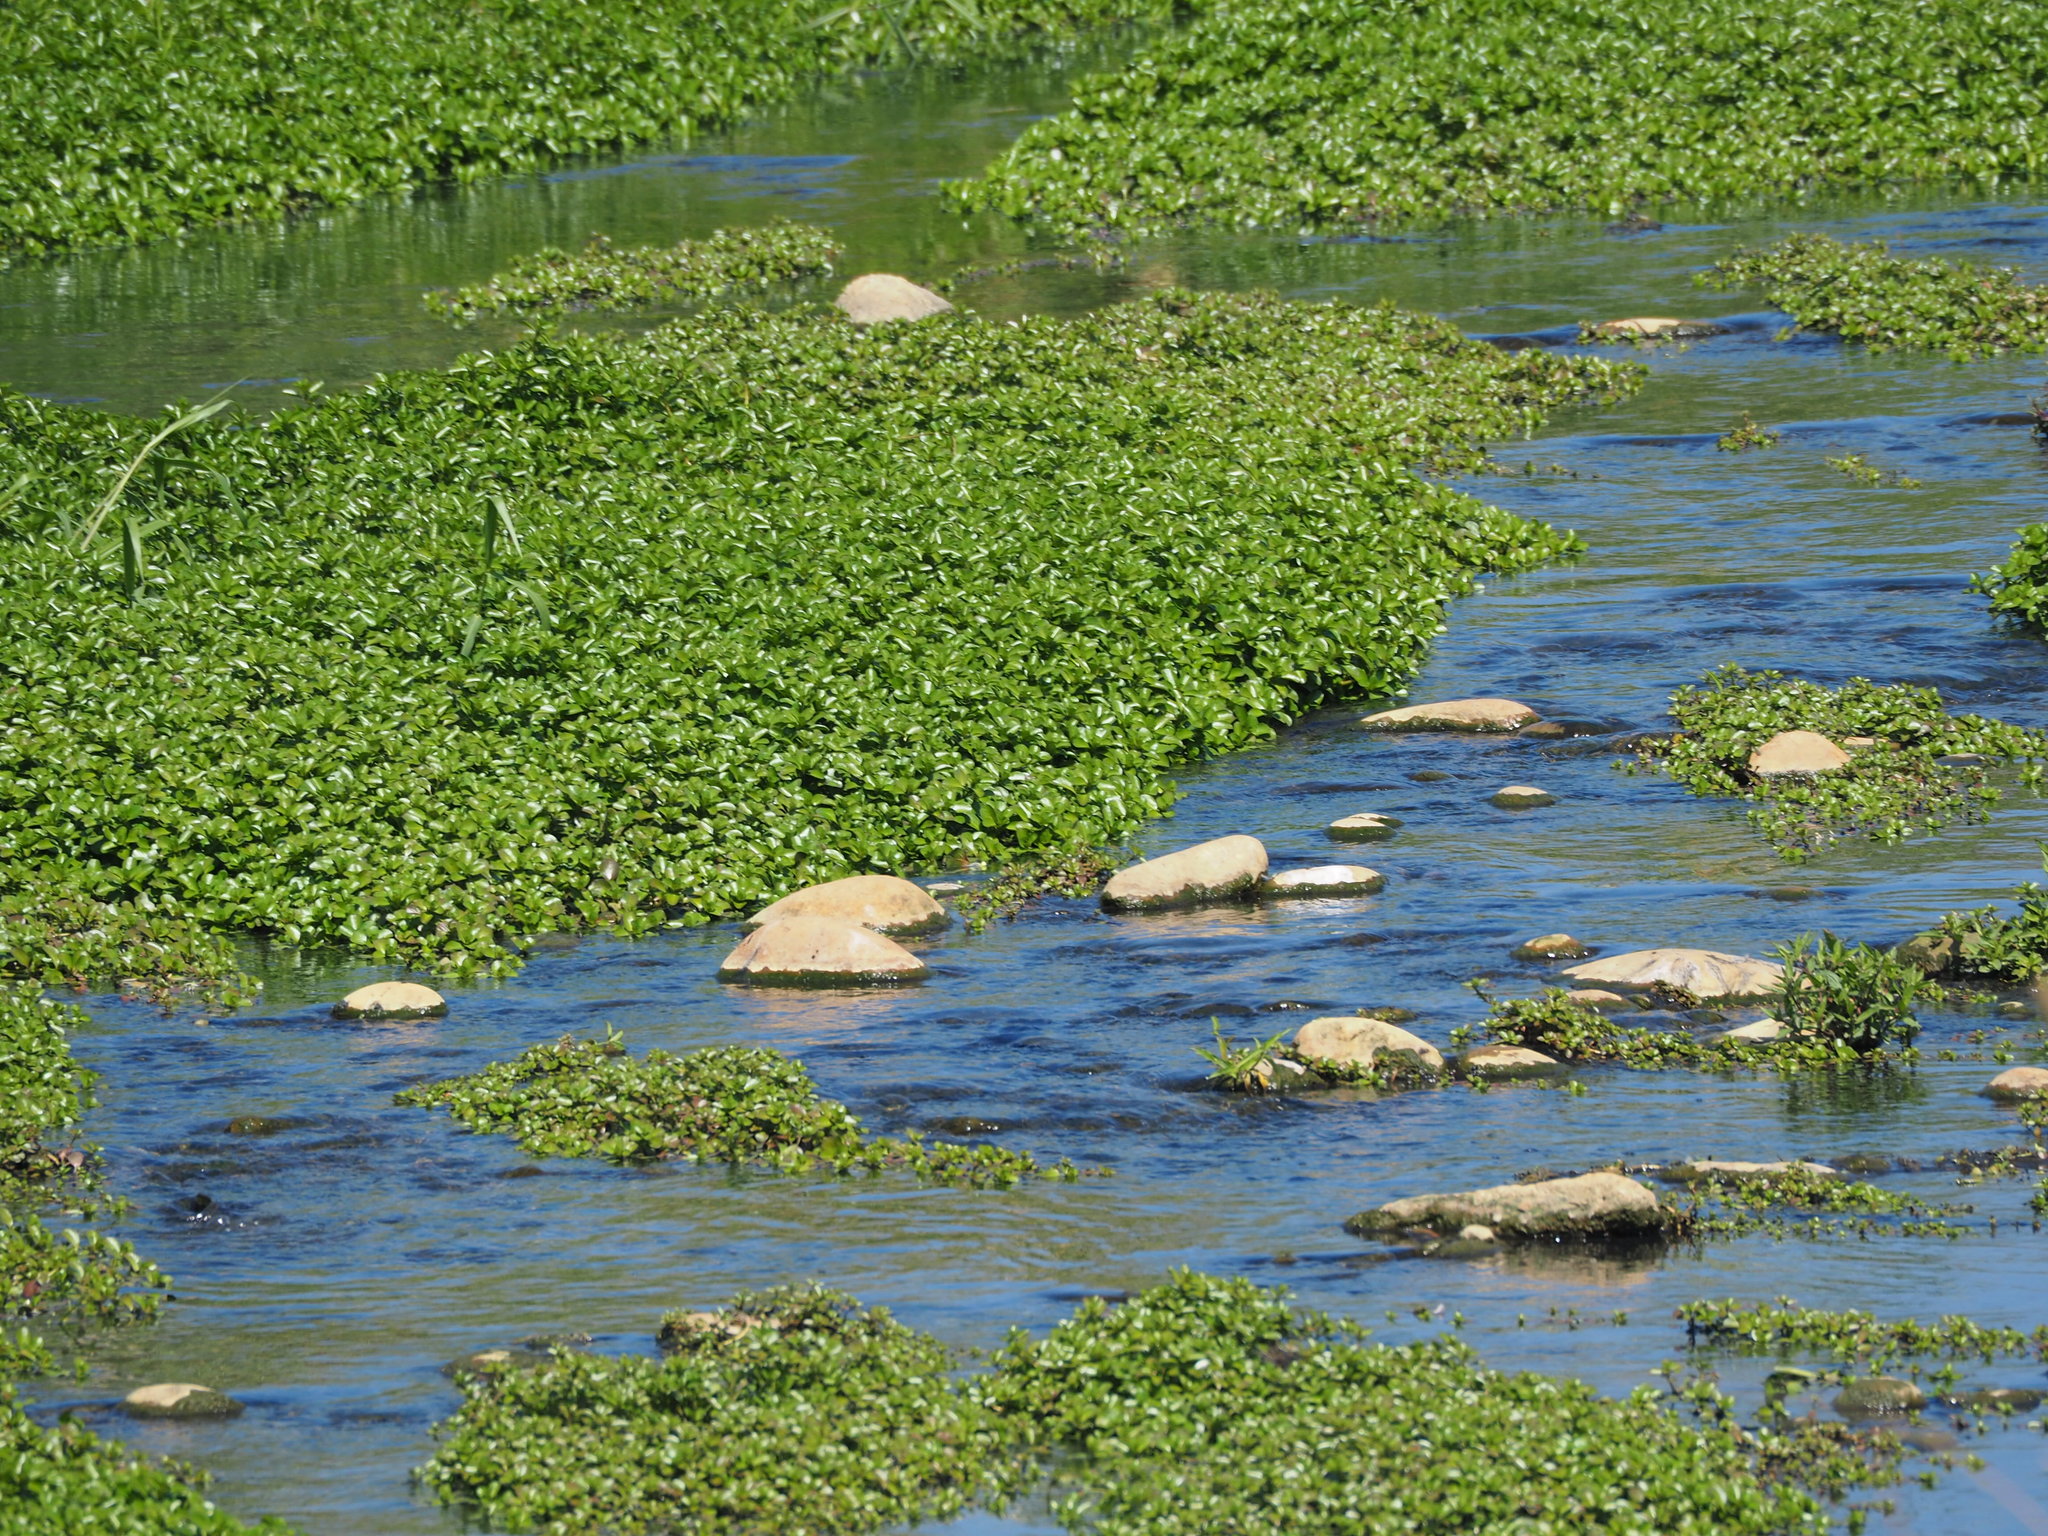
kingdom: Plantae
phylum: Tracheophyta
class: Magnoliopsida
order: Myrtales
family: Onagraceae
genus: Ludwigia
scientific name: Ludwigia taiwanensis
